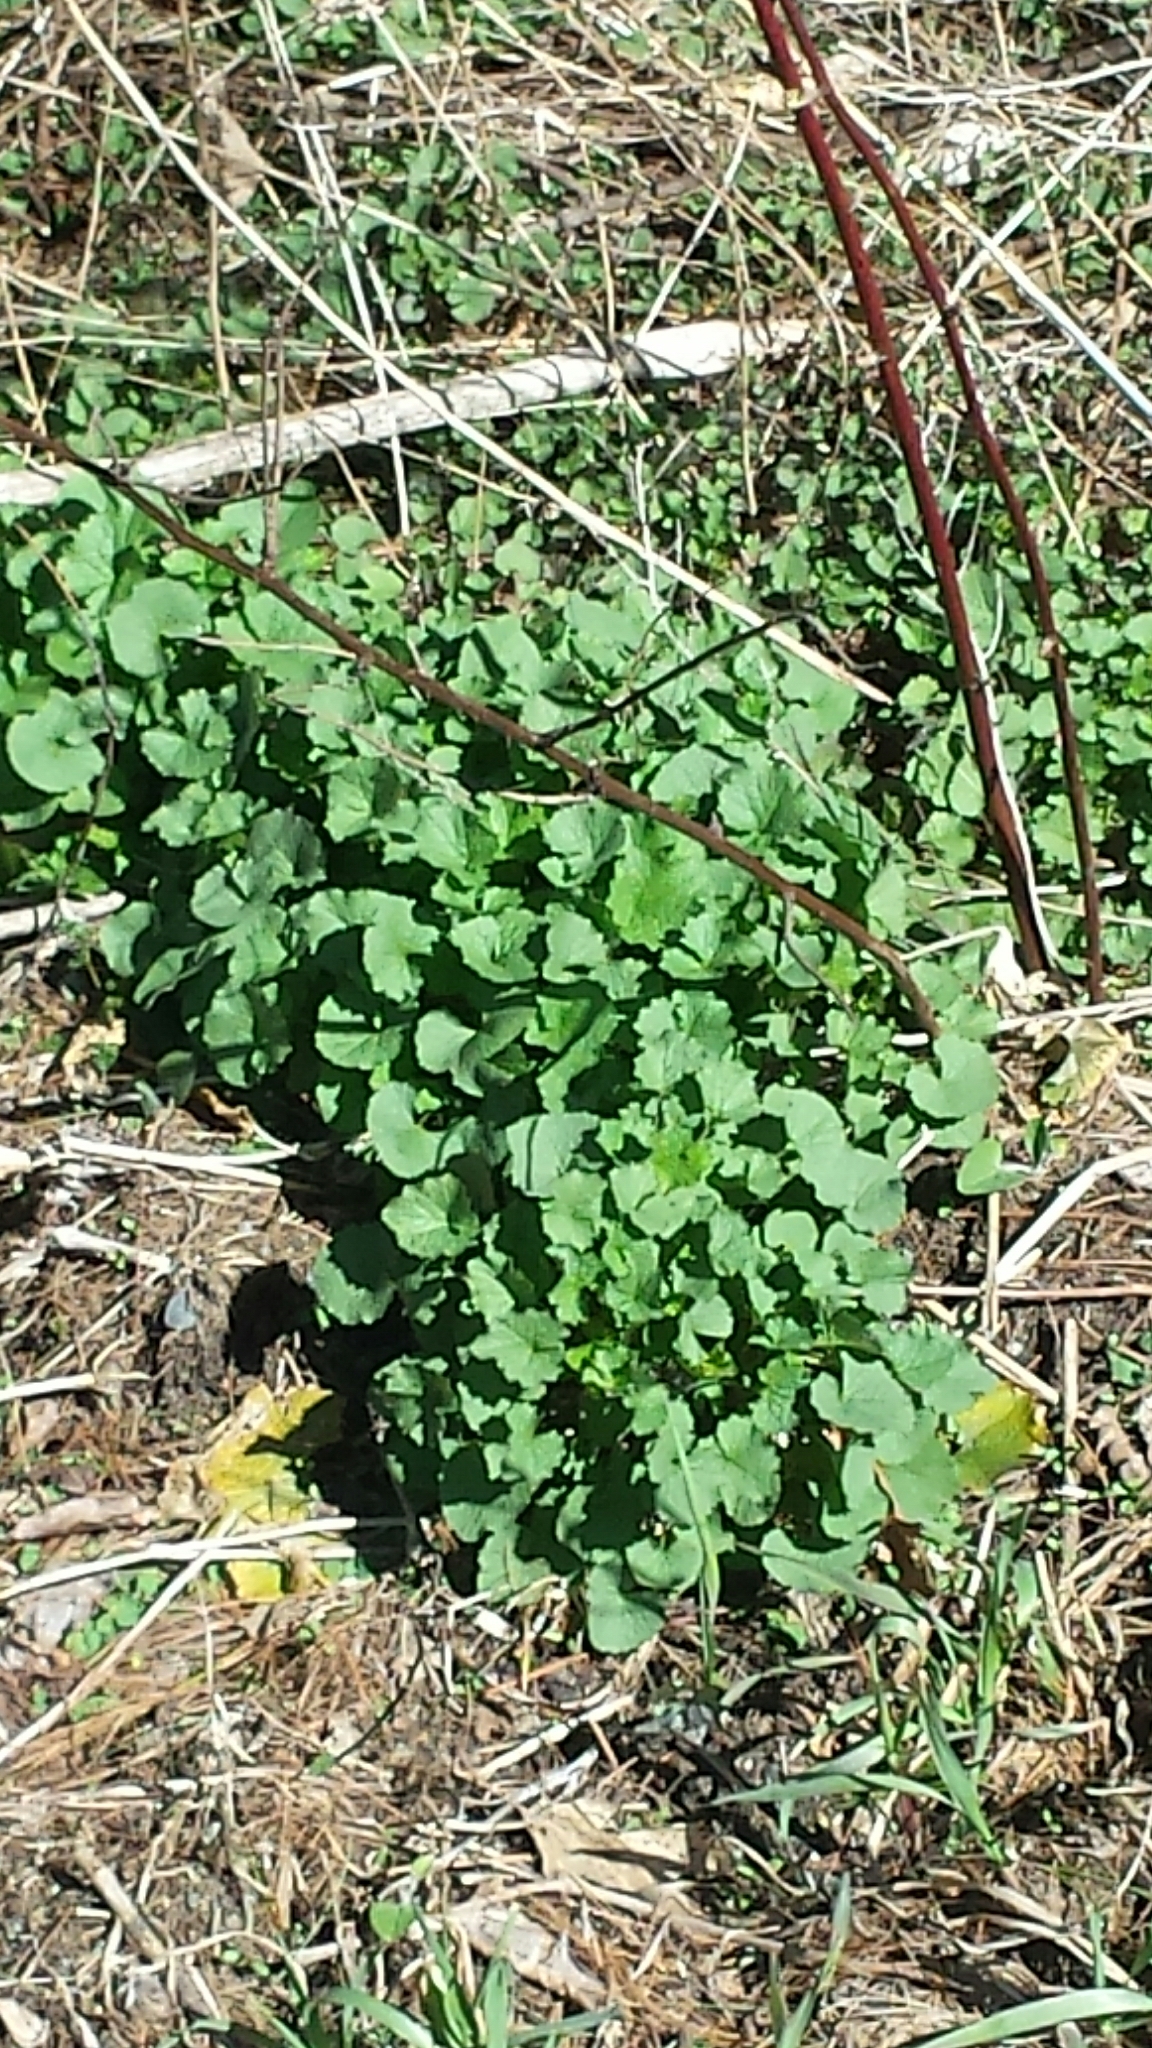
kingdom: Plantae
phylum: Tracheophyta
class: Magnoliopsida
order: Brassicales
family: Brassicaceae
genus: Alliaria
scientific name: Alliaria petiolata
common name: Garlic mustard
